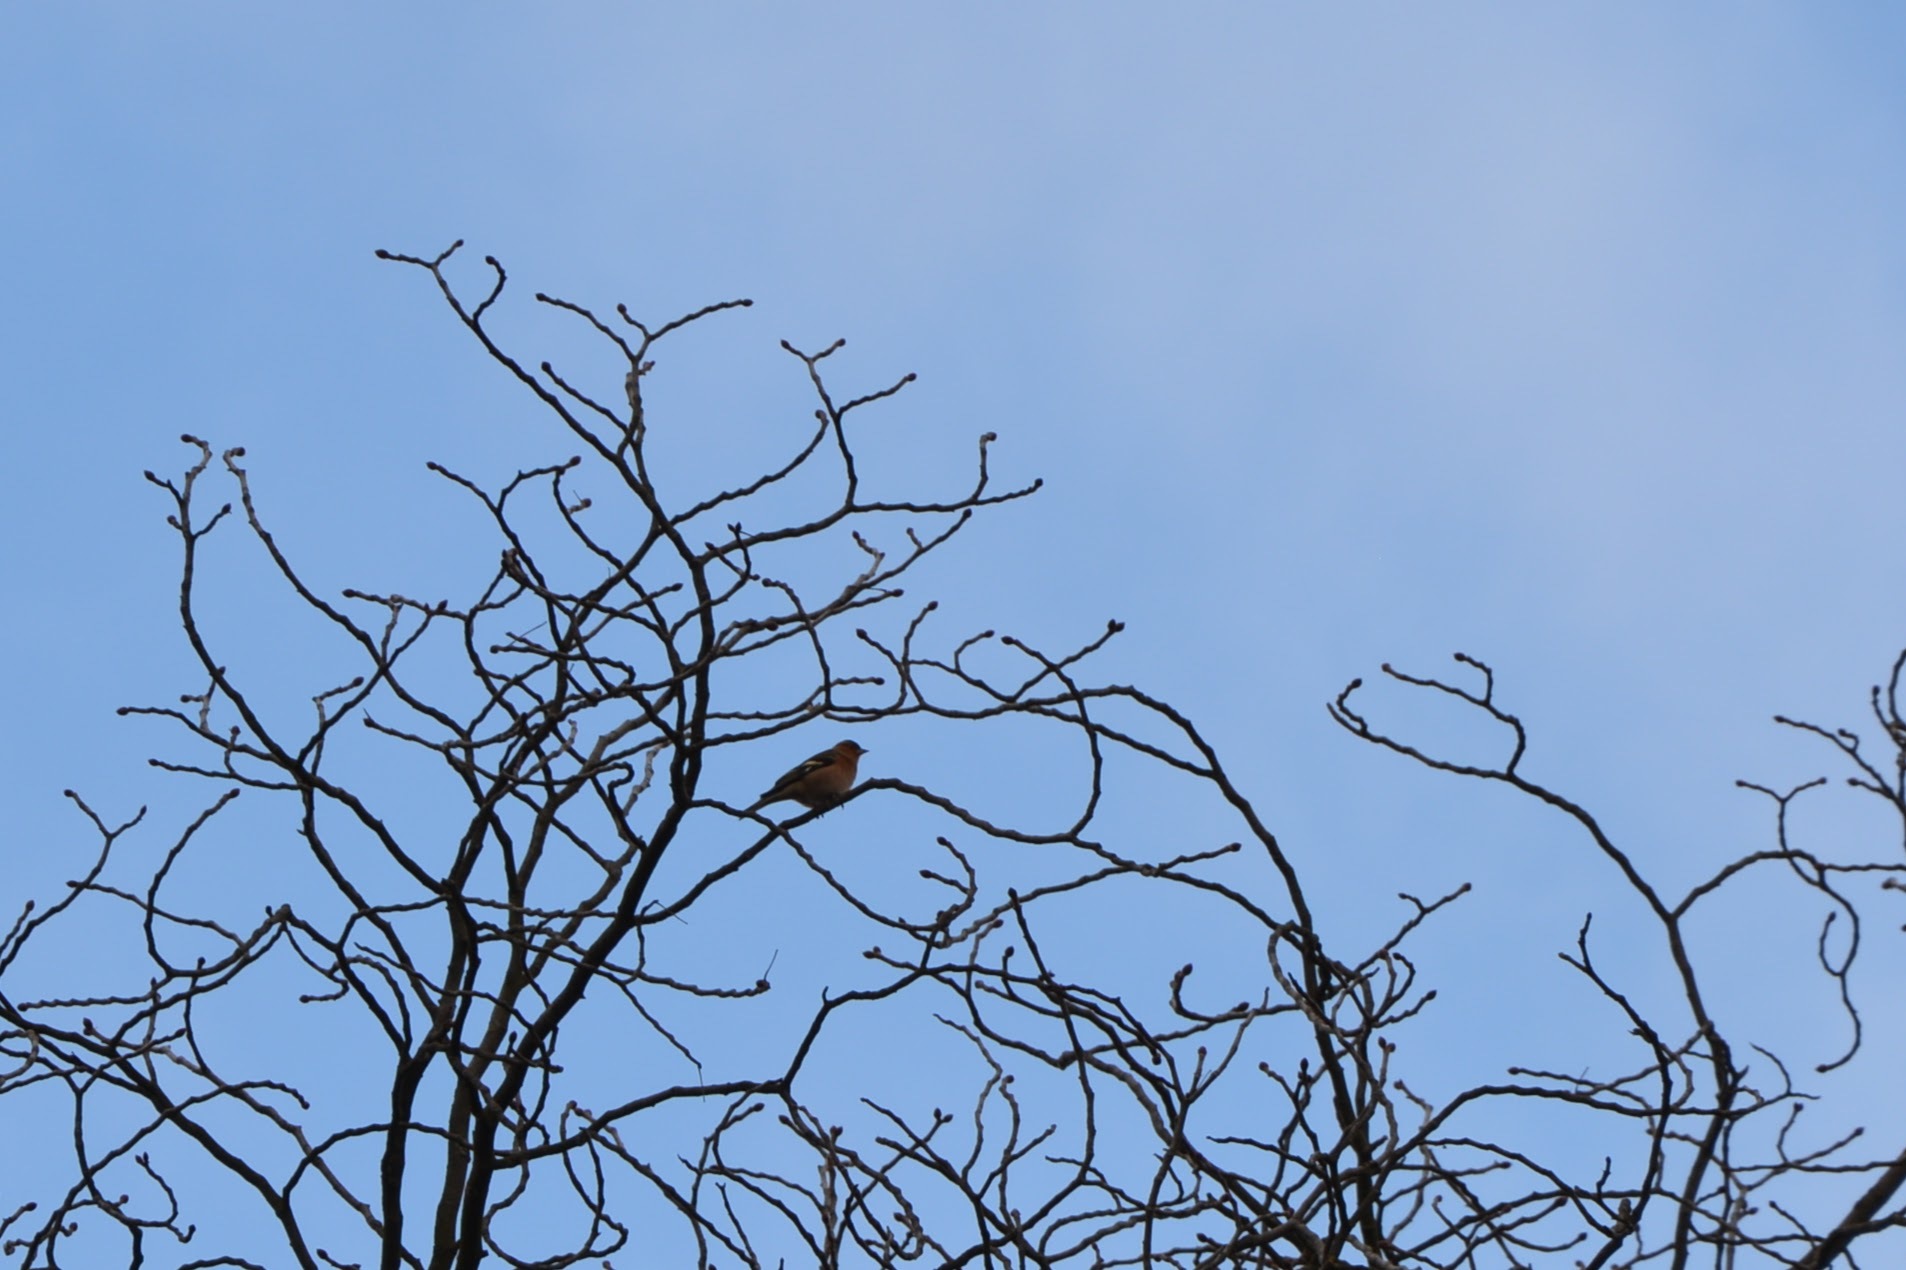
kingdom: Animalia
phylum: Chordata
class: Aves
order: Passeriformes
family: Fringillidae
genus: Fringilla
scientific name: Fringilla coelebs
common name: Common chaffinch
